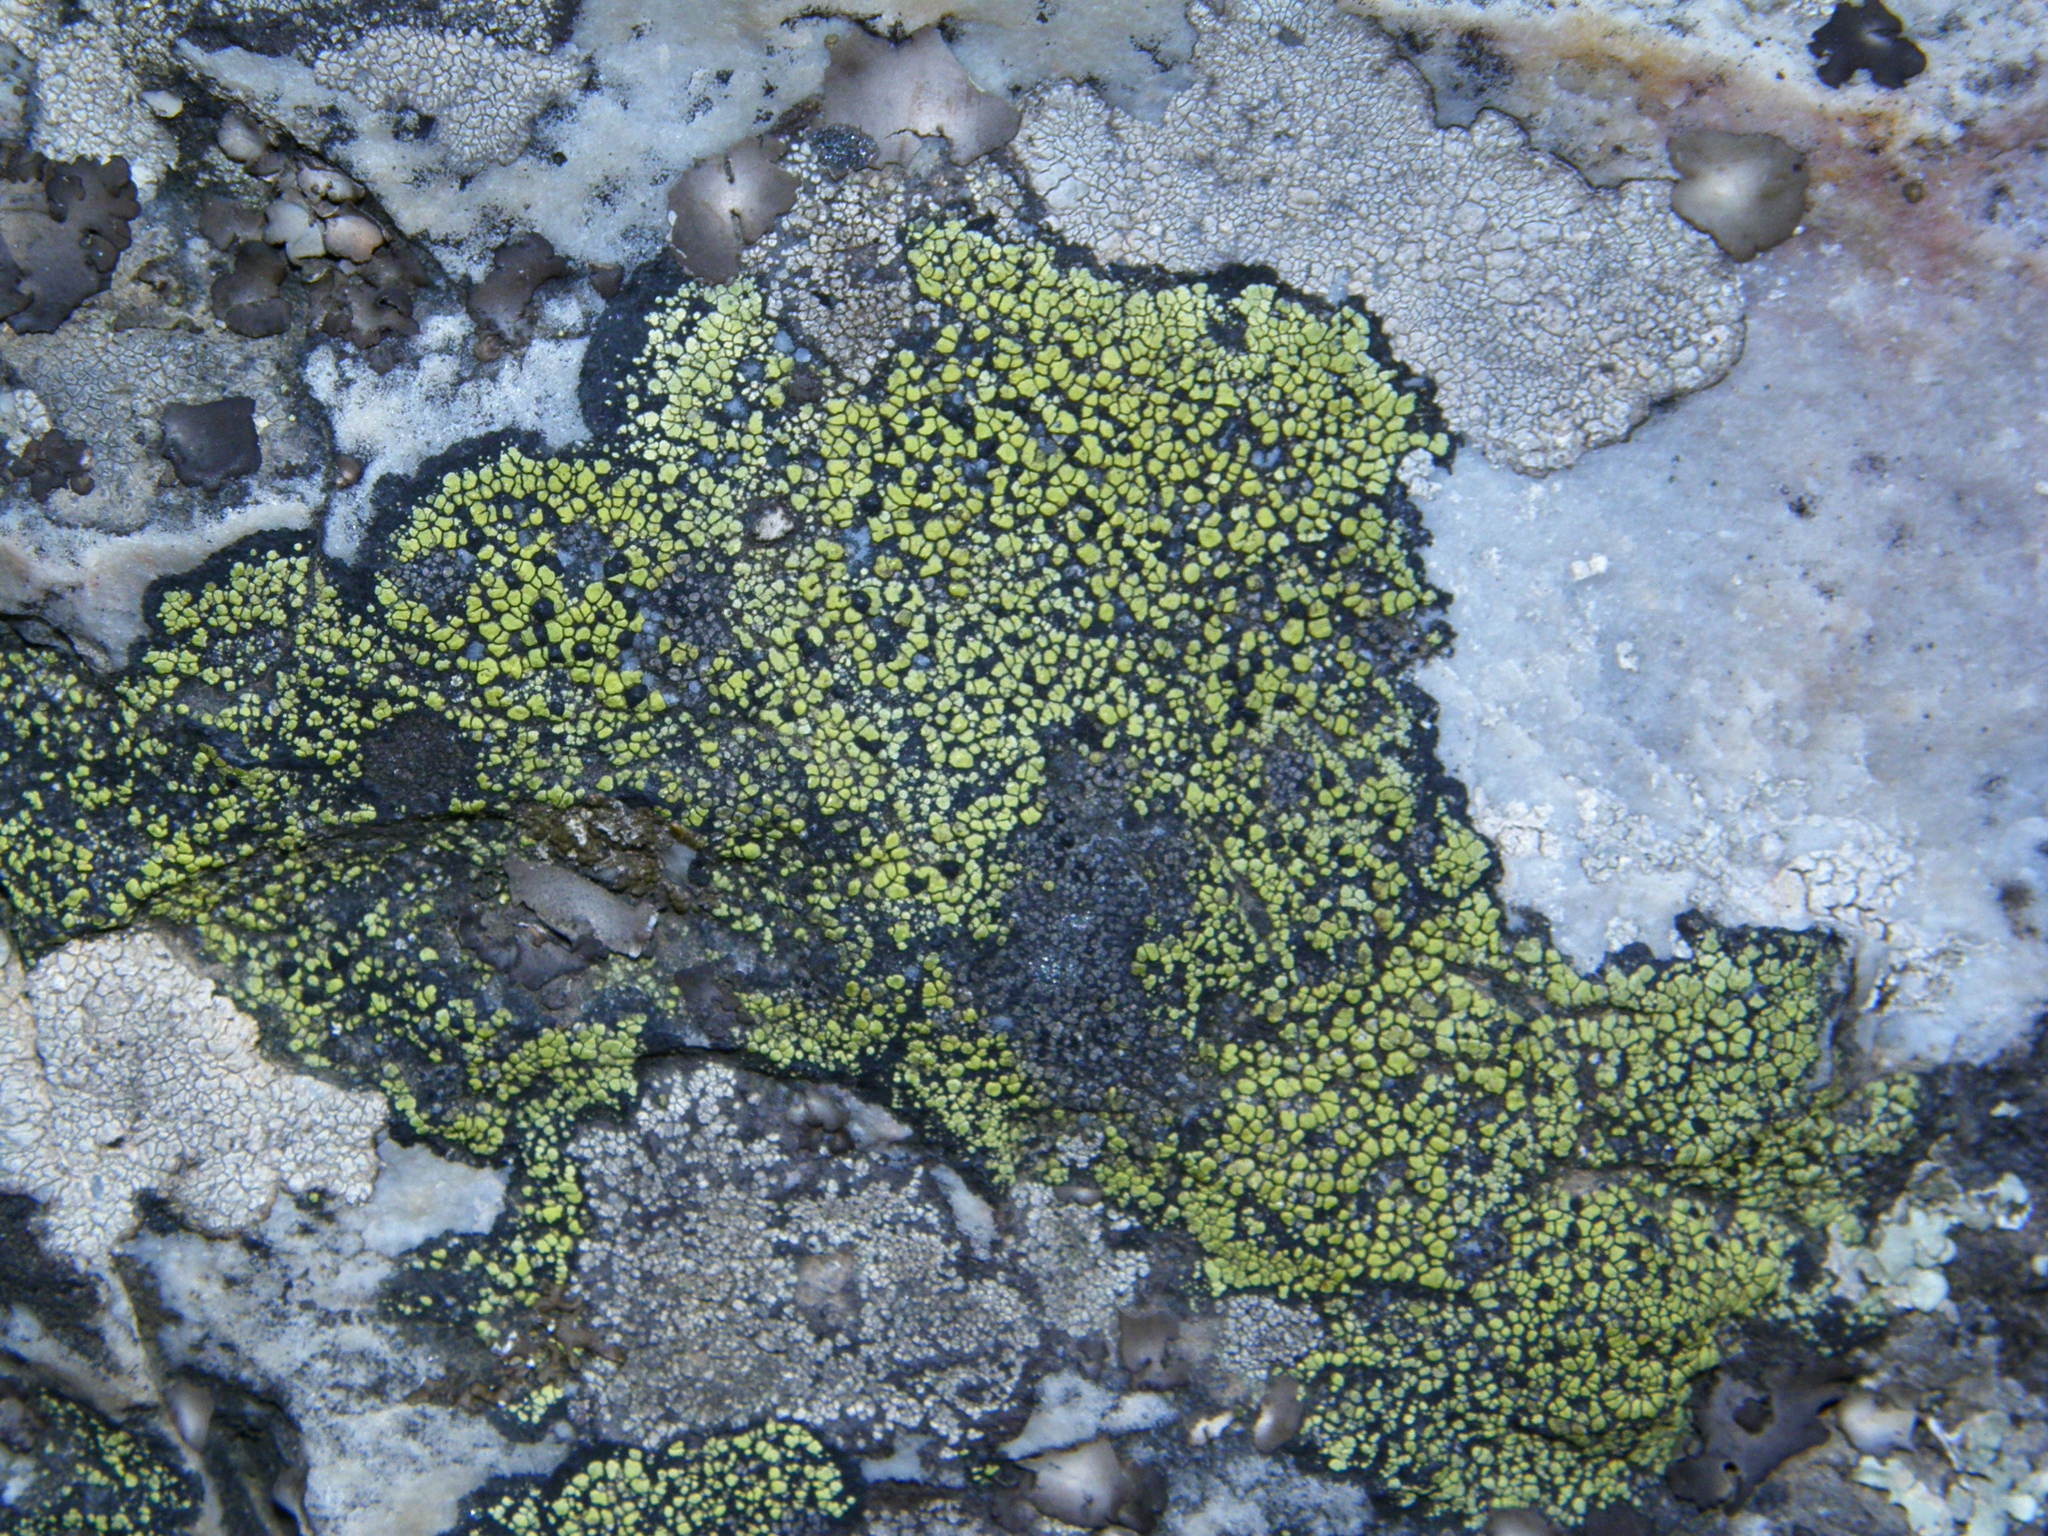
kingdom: Fungi
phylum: Ascomycota
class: Lecanoromycetes
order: Rhizocarpales
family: Rhizocarpaceae
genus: Rhizocarpon
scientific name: Rhizocarpon geographicum
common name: Yellow map lichen
